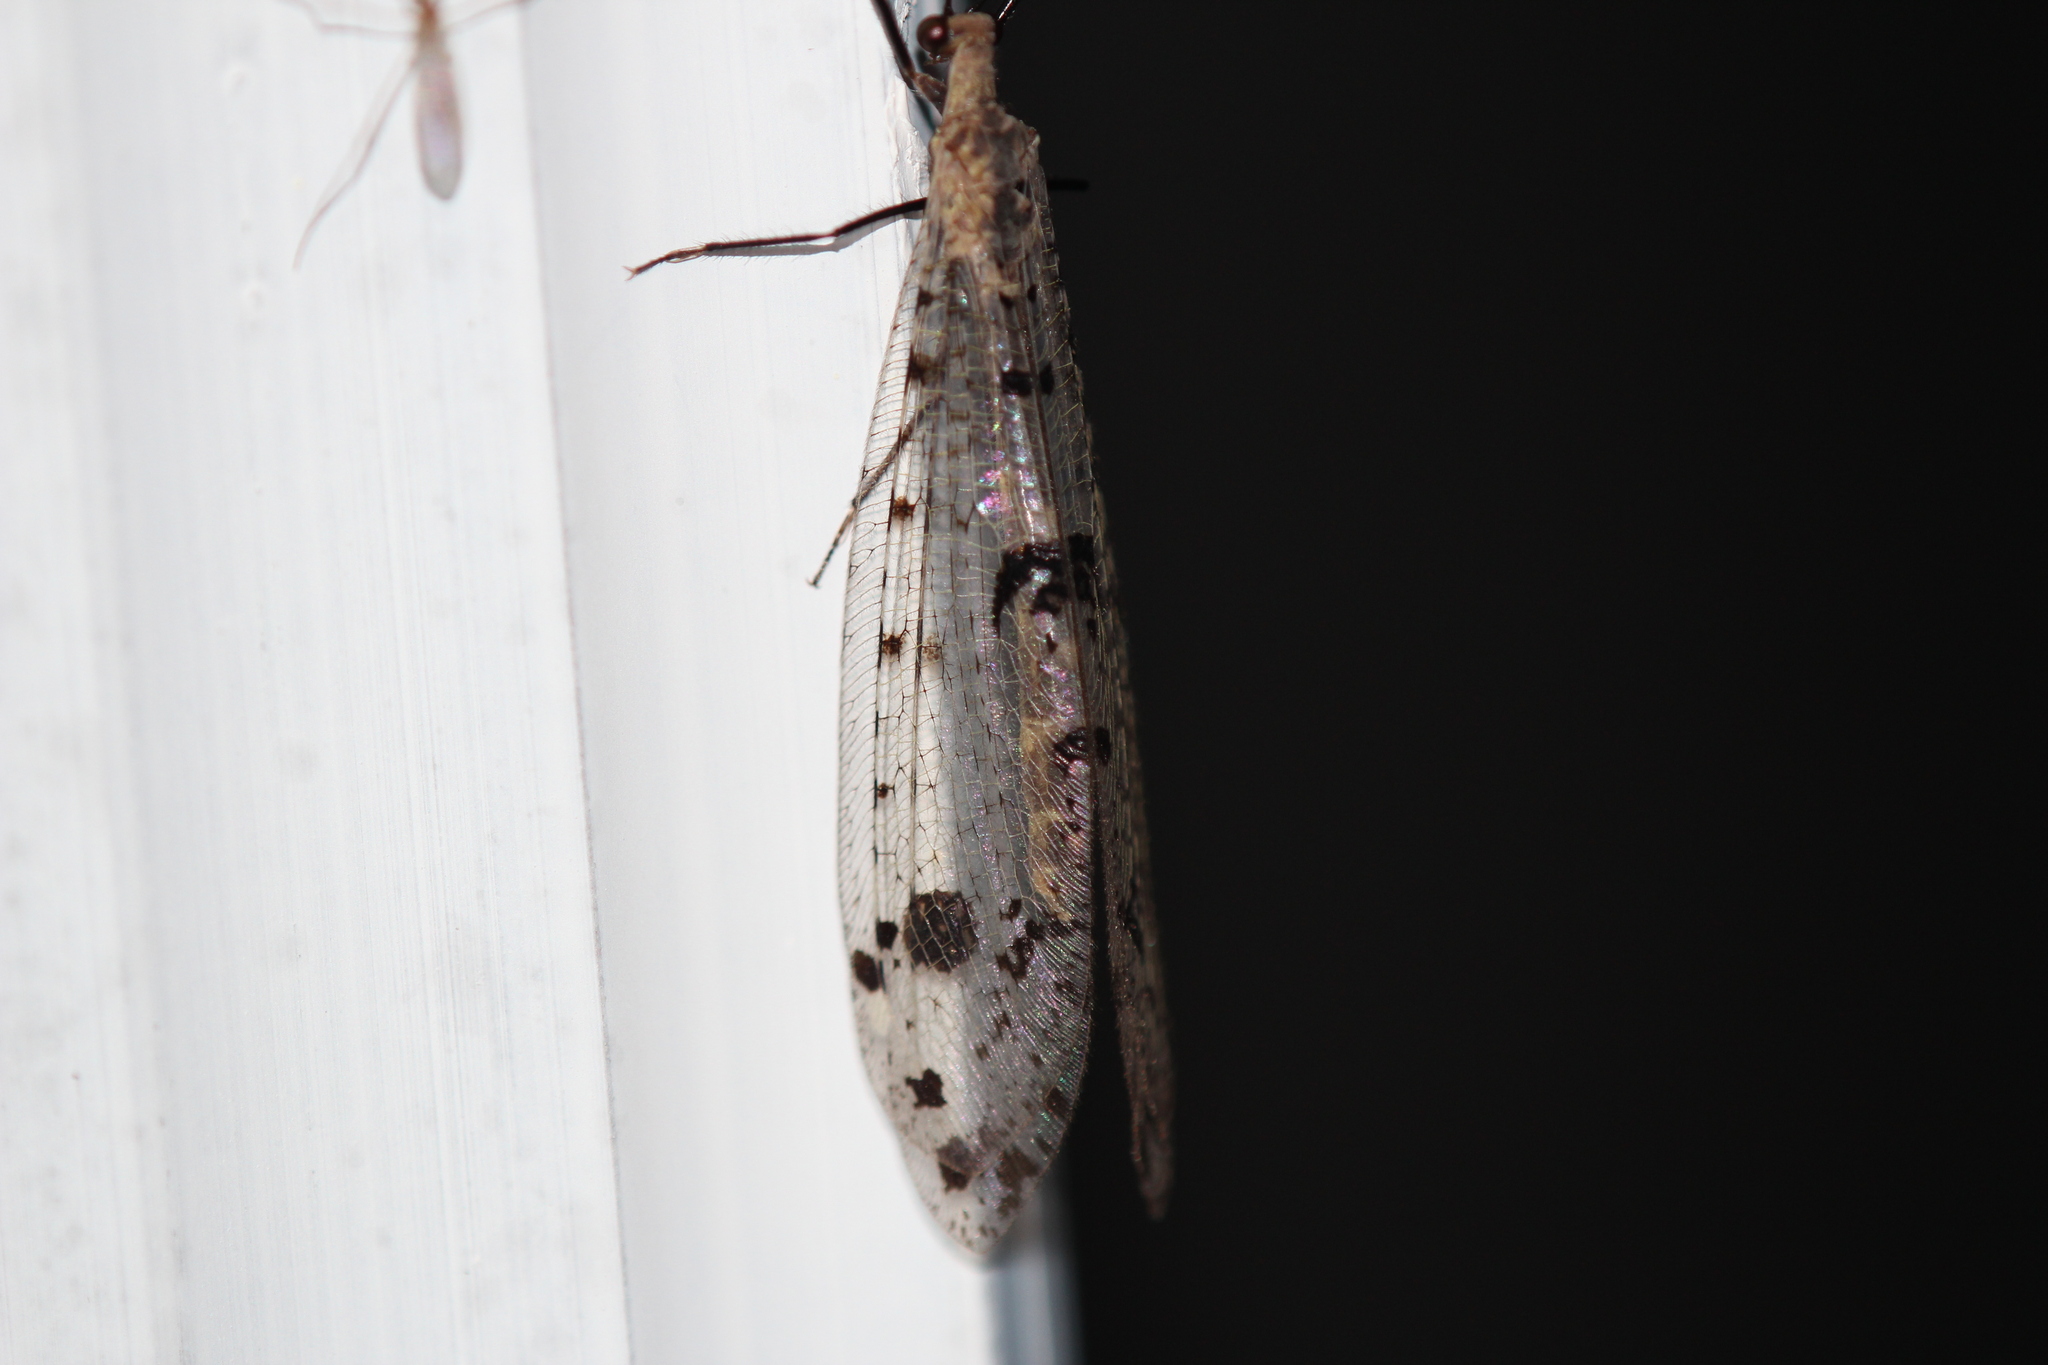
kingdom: Animalia
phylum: Arthropoda
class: Insecta
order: Neuroptera
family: Myrmeleontidae
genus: Dendroleon
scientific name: Dendroleon obsoletus
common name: Eastern spotted-winged antlion
